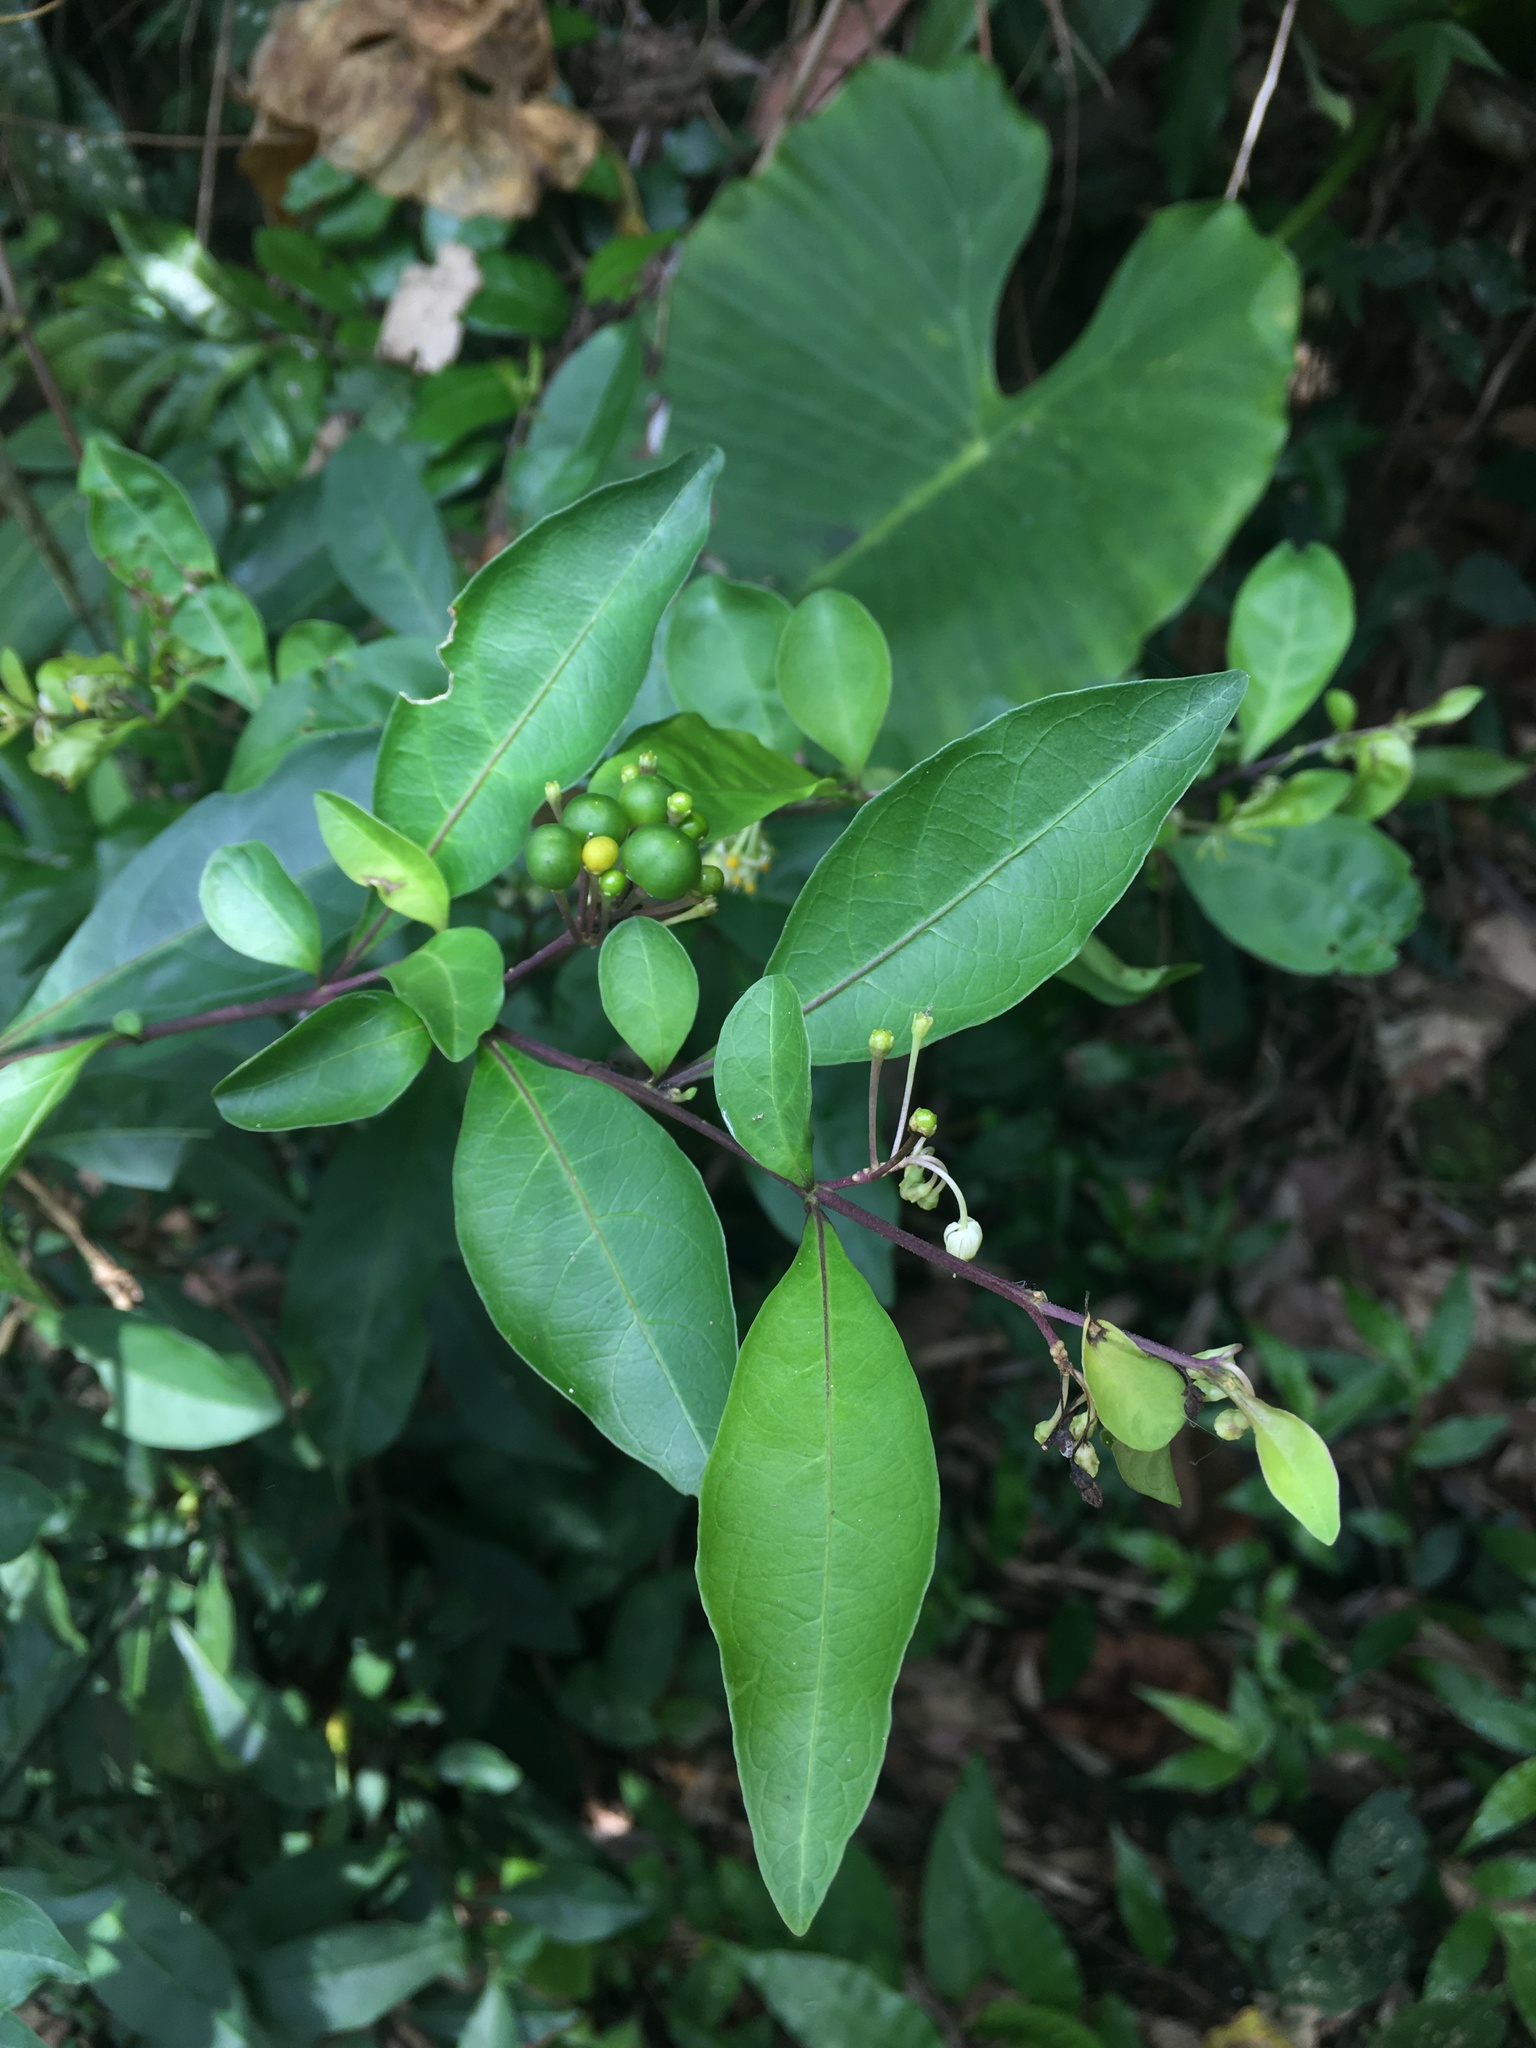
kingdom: Plantae
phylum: Tracheophyta
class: Magnoliopsida
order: Solanales
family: Solanaceae
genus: Solanum
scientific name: Solanum diphyllum
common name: Twoleaf nightshade
